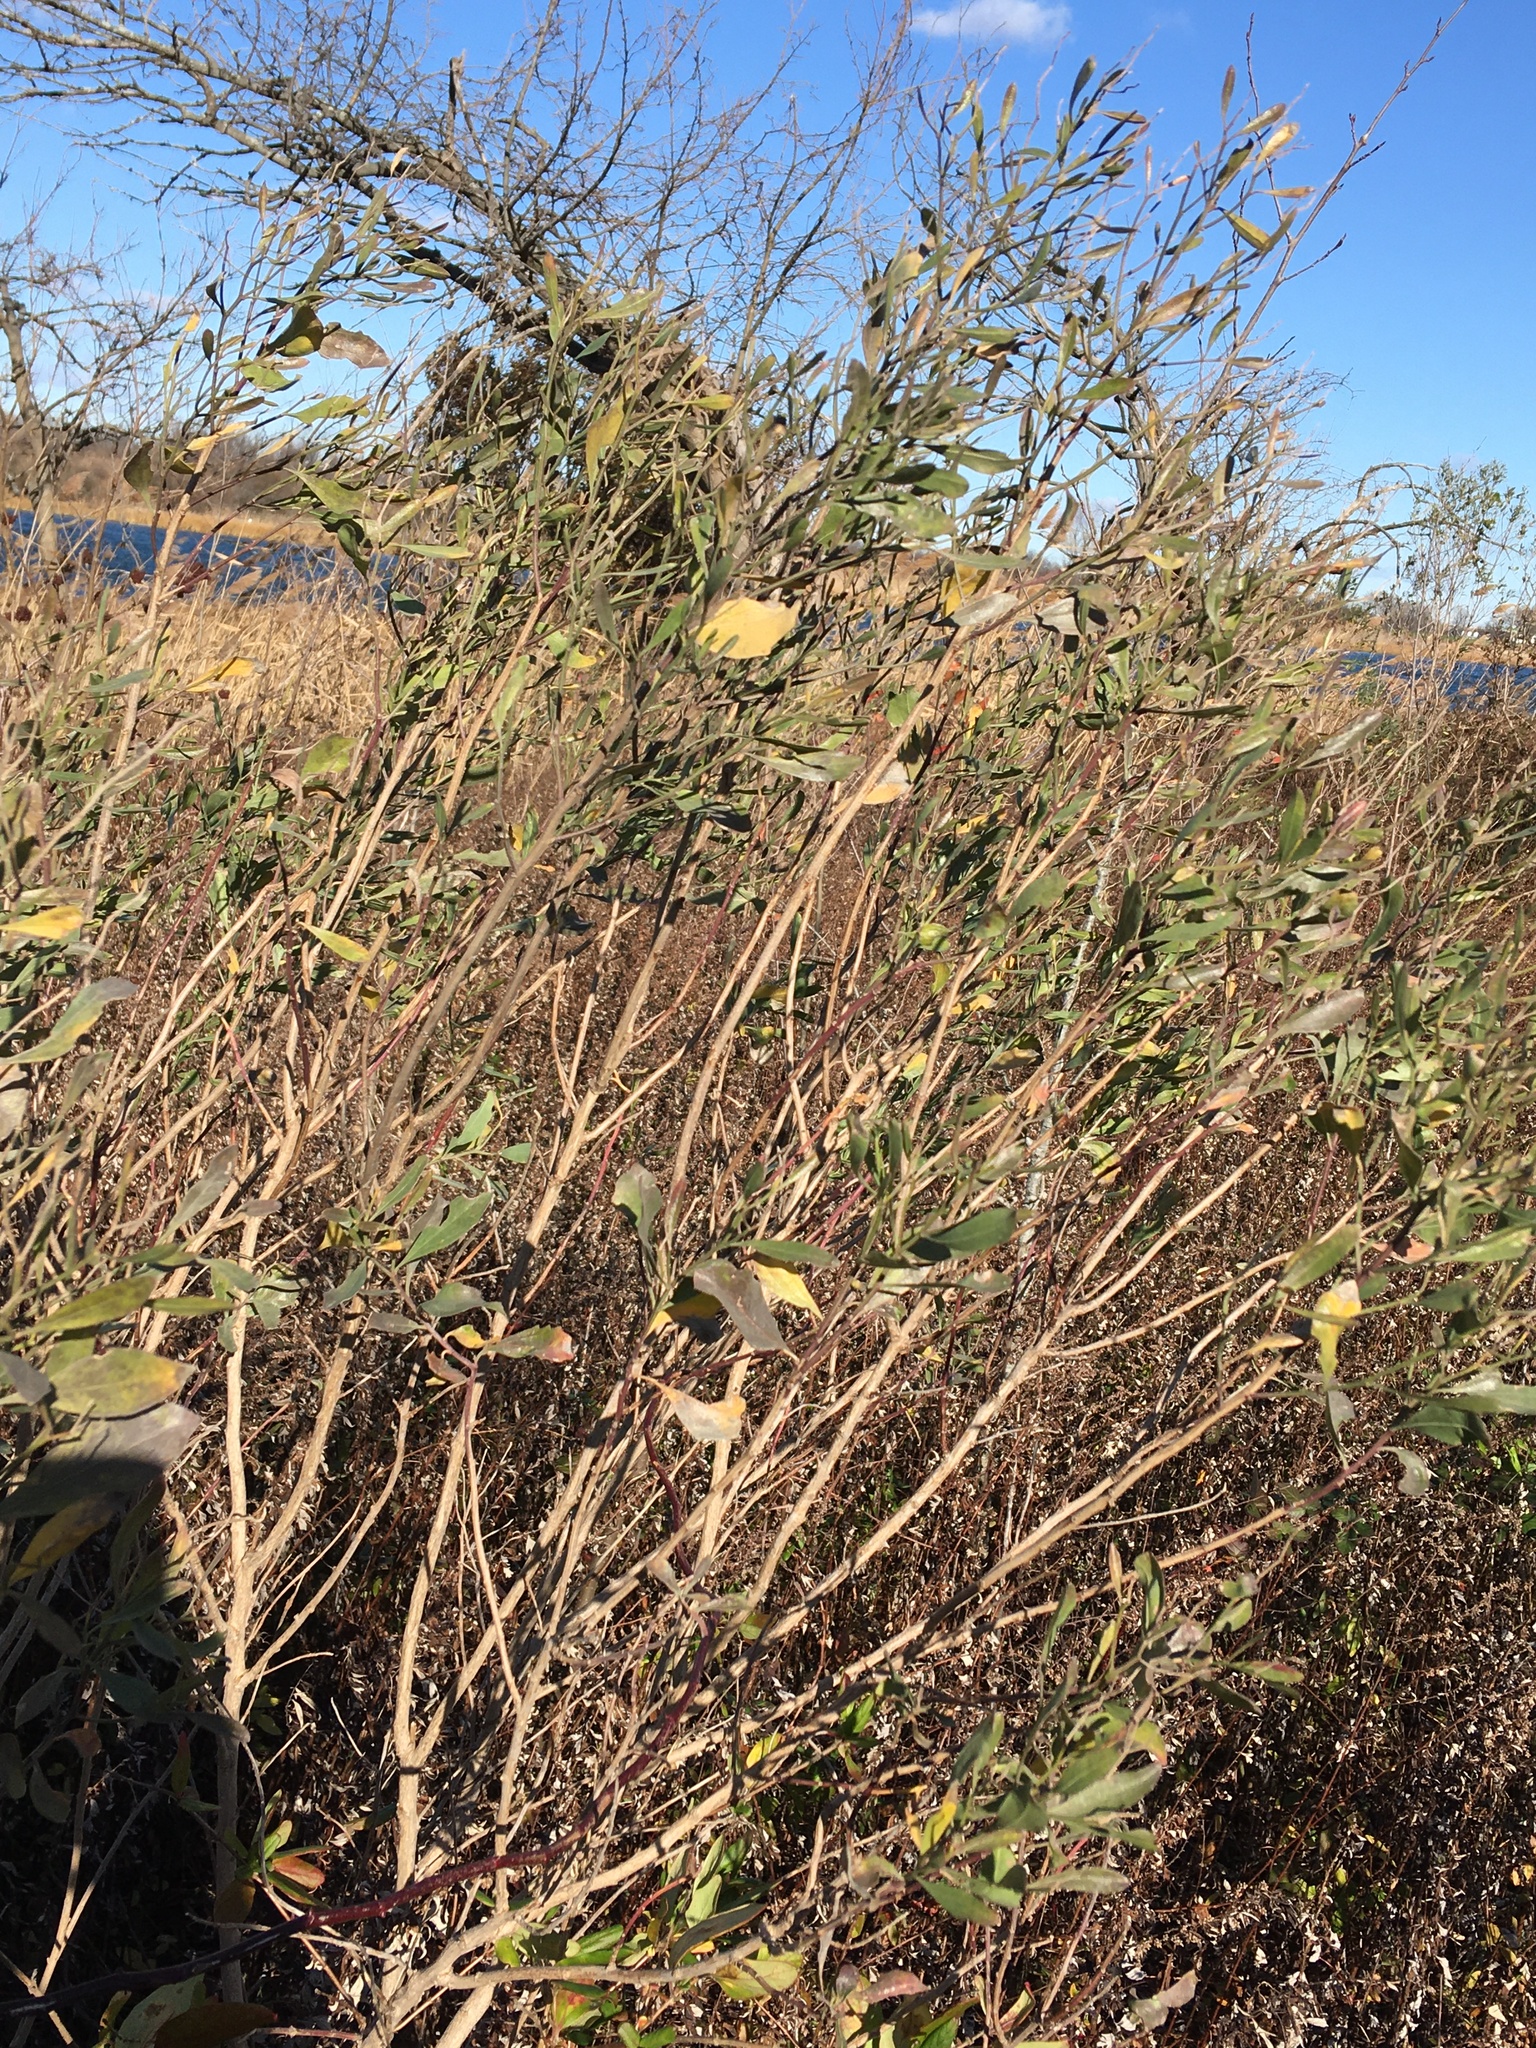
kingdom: Plantae
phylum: Tracheophyta
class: Magnoliopsida
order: Asterales
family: Asteraceae
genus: Baccharis
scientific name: Baccharis halimifolia
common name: Eastern baccharis
